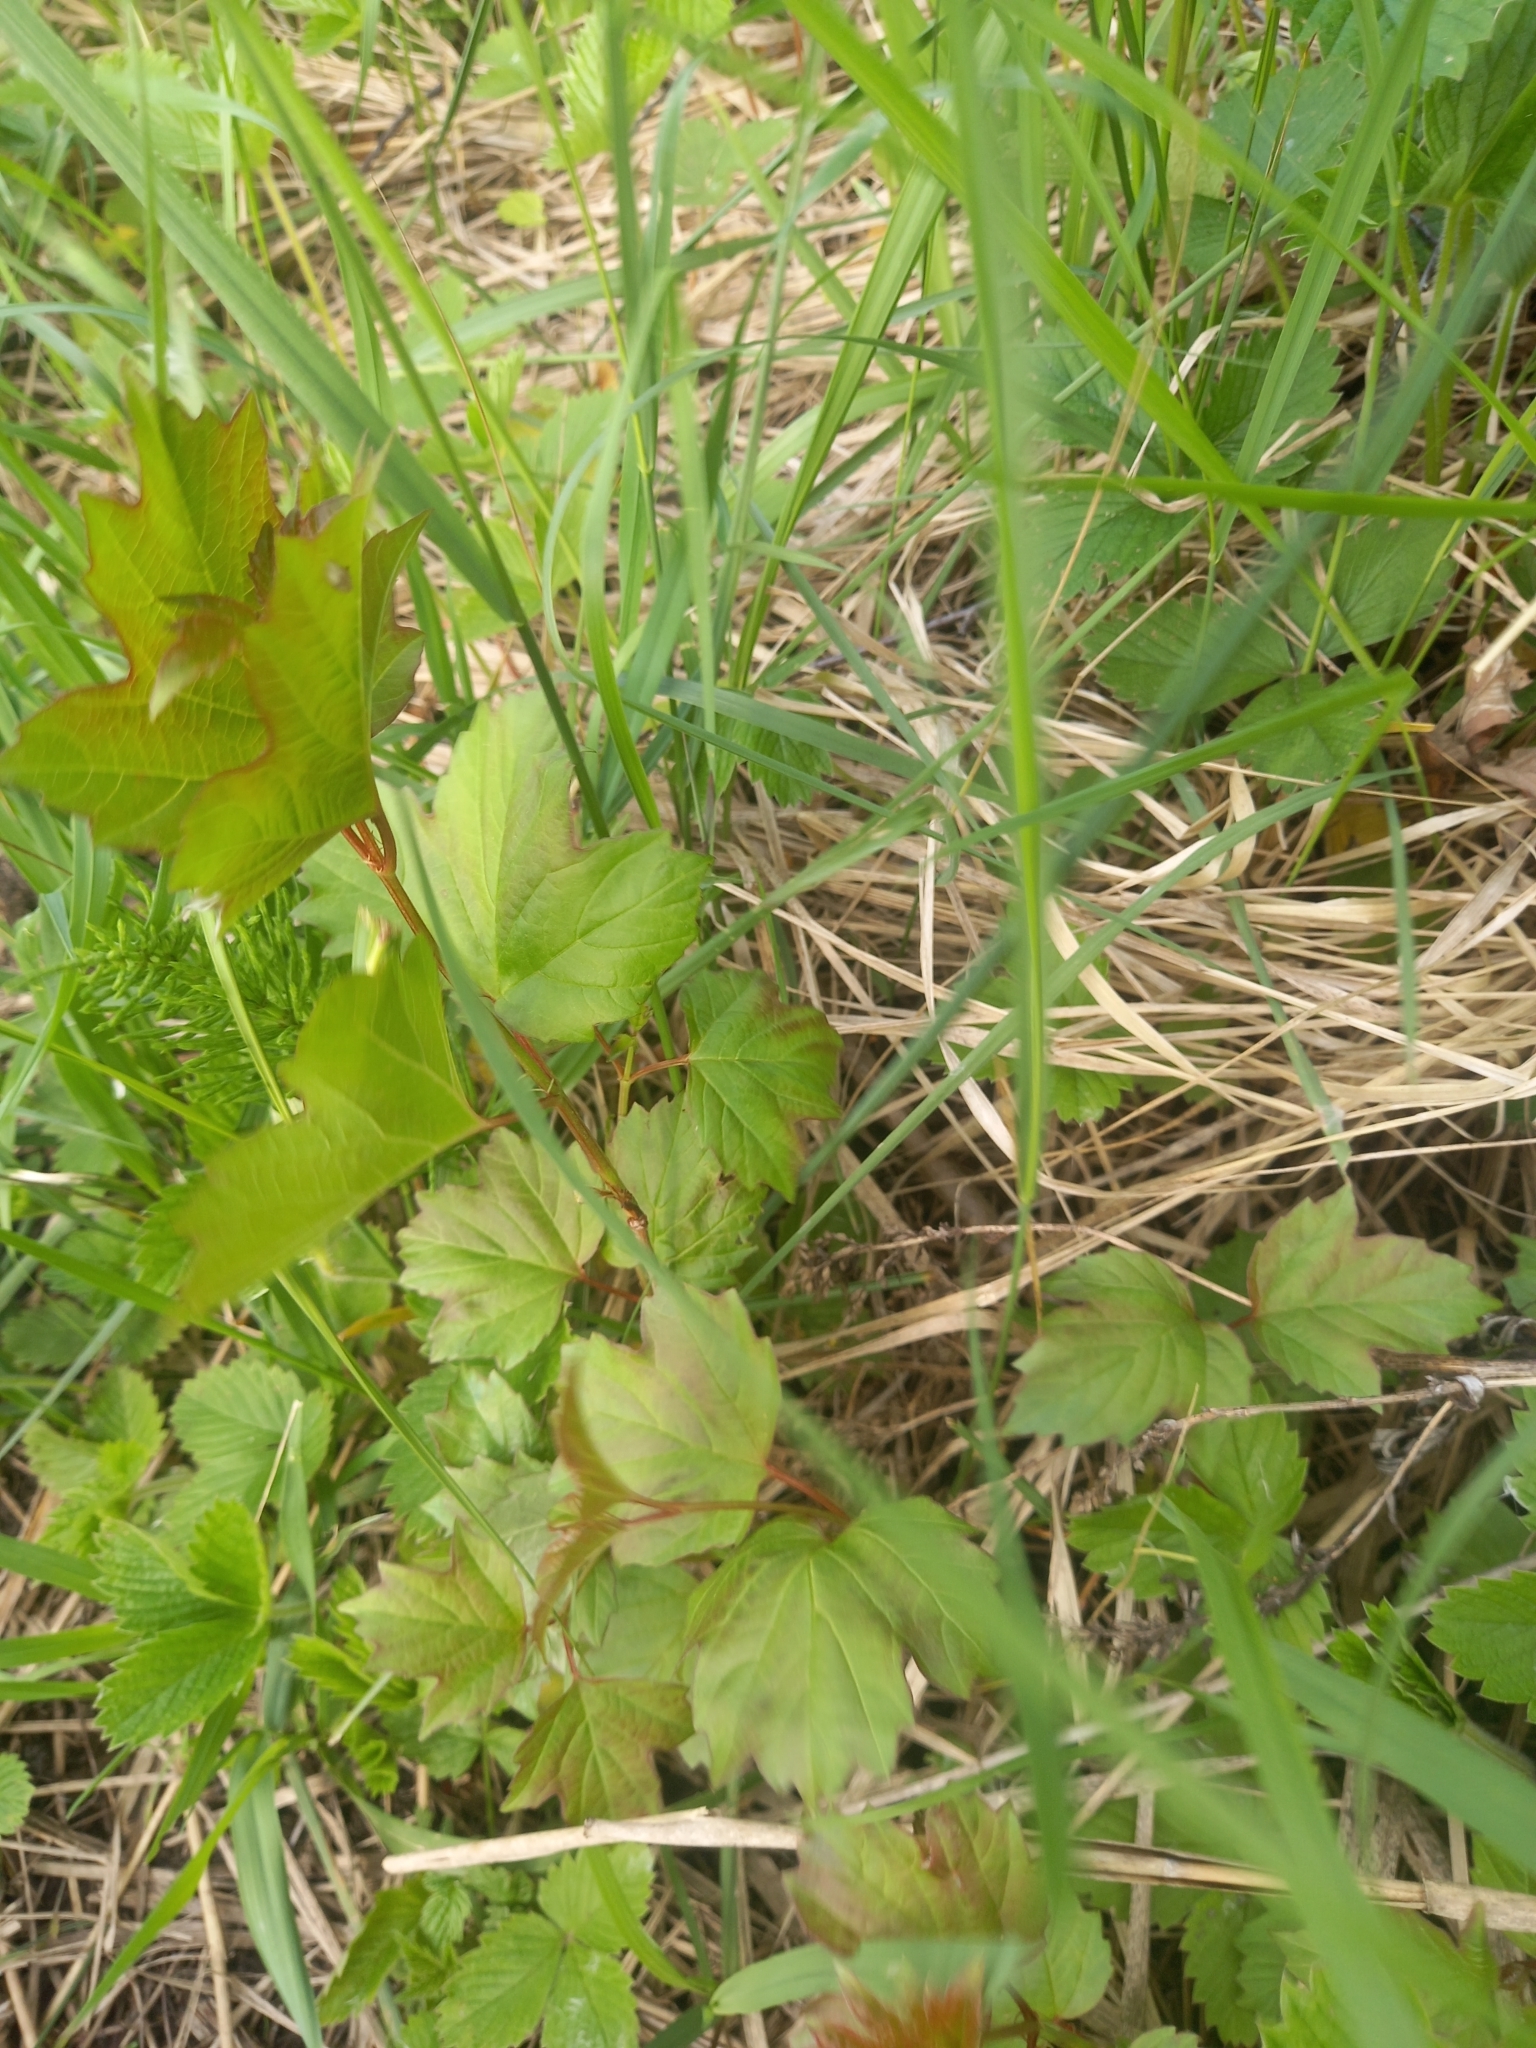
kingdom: Plantae
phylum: Tracheophyta
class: Magnoliopsida
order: Dipsacales
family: Viburnaceae
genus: Viburnum
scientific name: Viburnum opulus
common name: Guelder-rose
